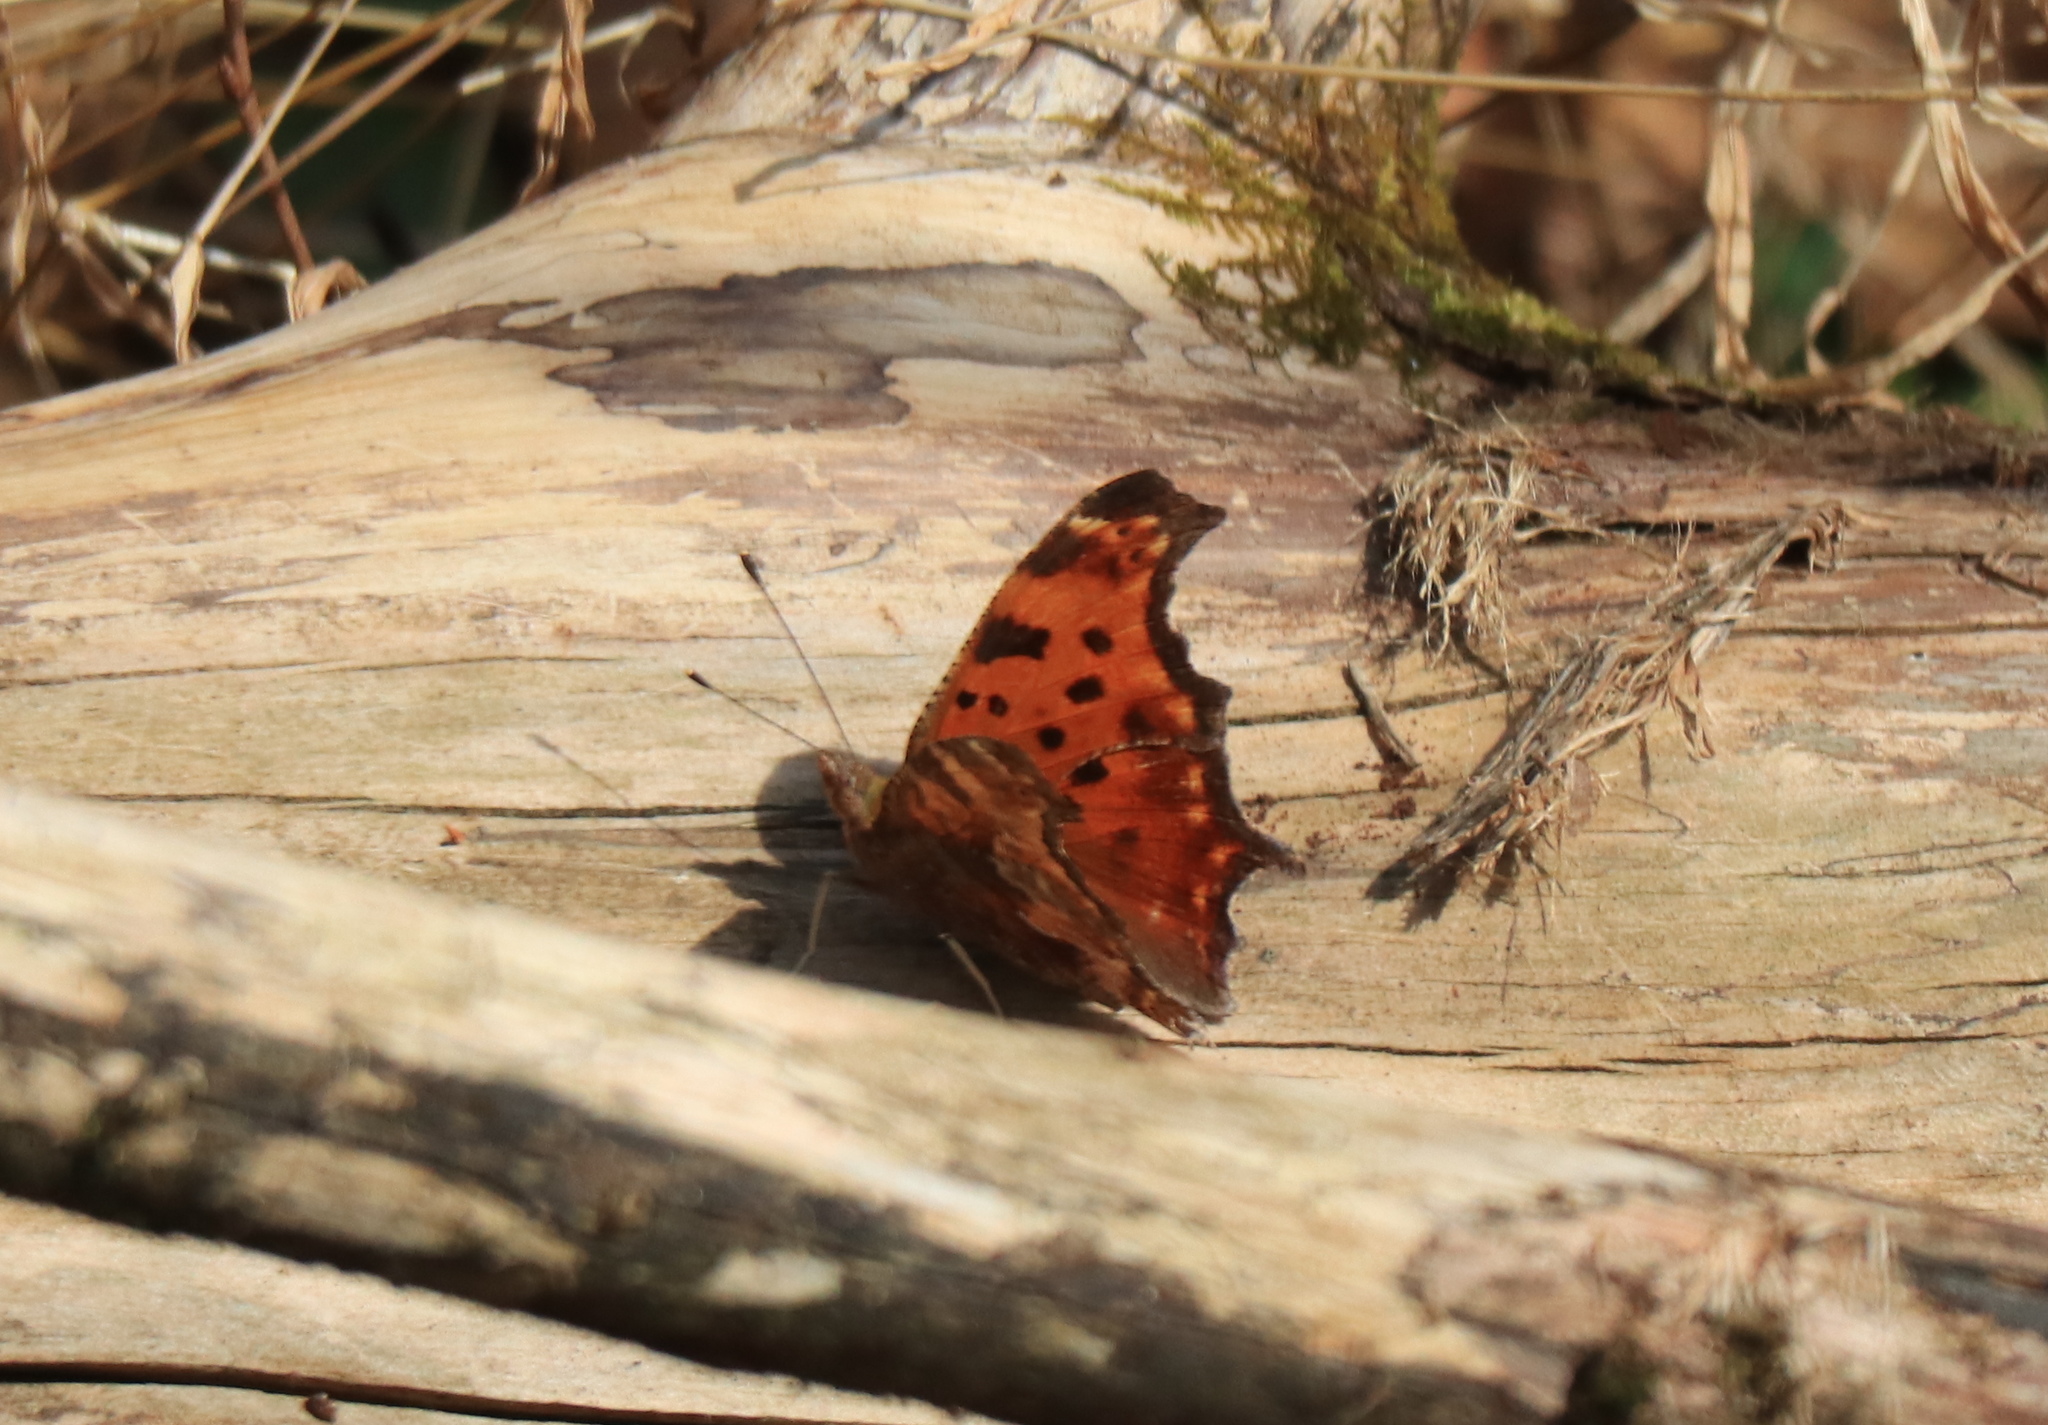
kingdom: Animalia
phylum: Arthropoda
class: Insecta
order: Lepidoptera
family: Nymphalidae
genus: Polygonia
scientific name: Polygonia comma
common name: Eastern comma
